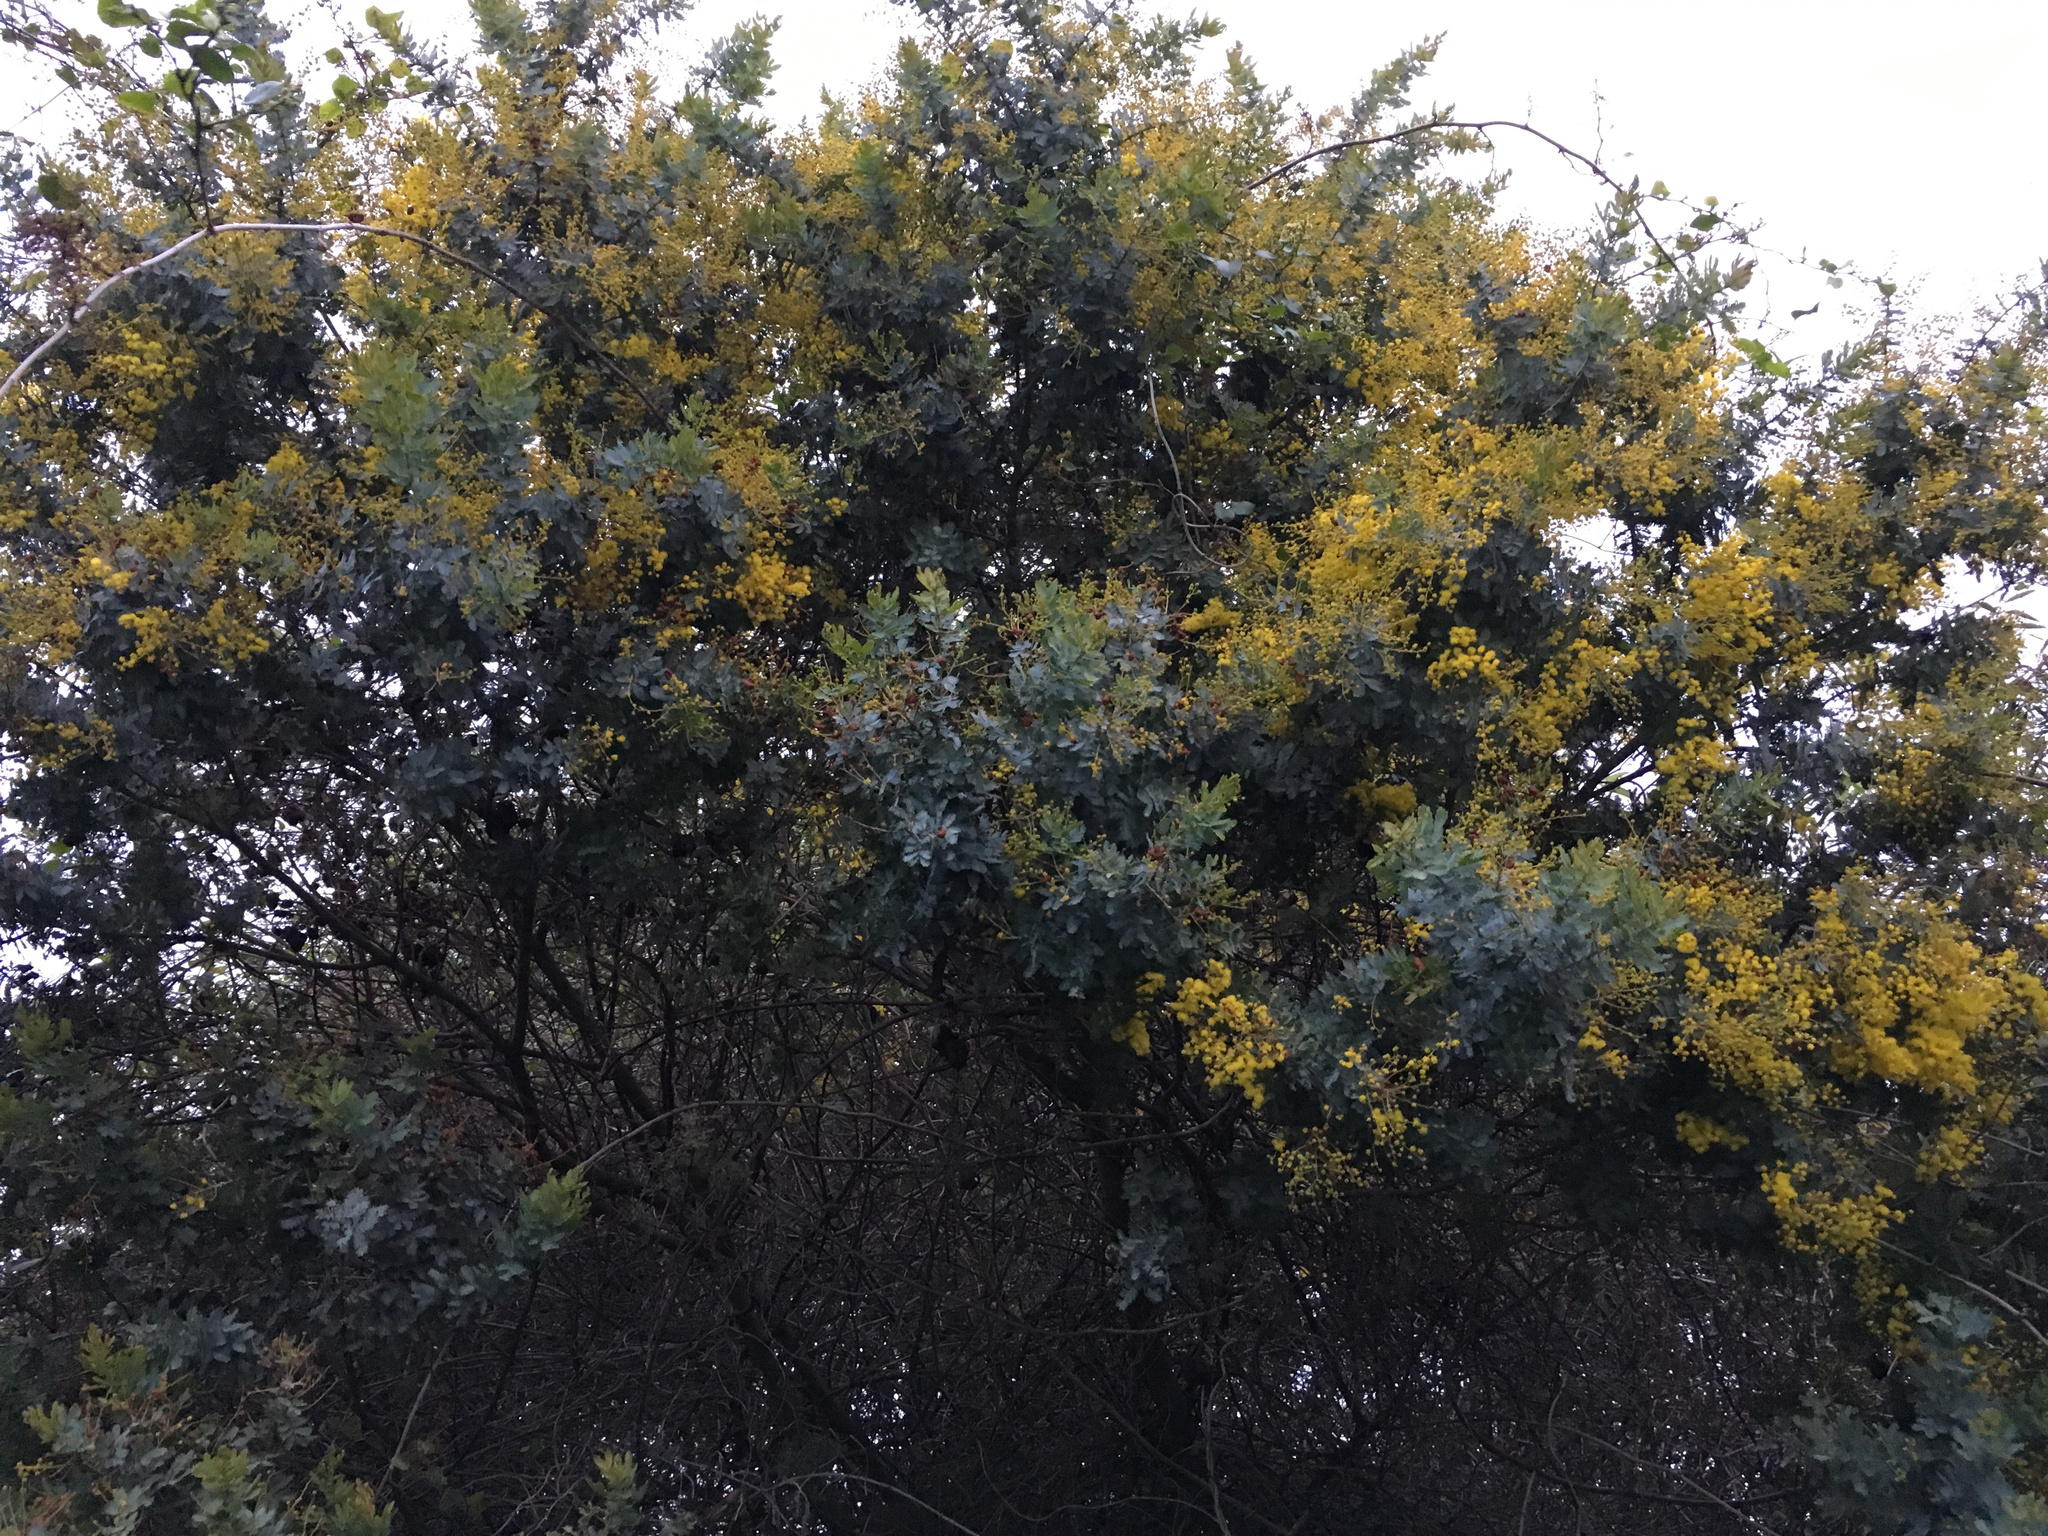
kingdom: Plantae
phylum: Tracheophyta
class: Magnoliopsida
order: Fabales
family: Fabaceae
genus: Acacia
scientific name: Acacia baileyana
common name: Cootamundra wattle
